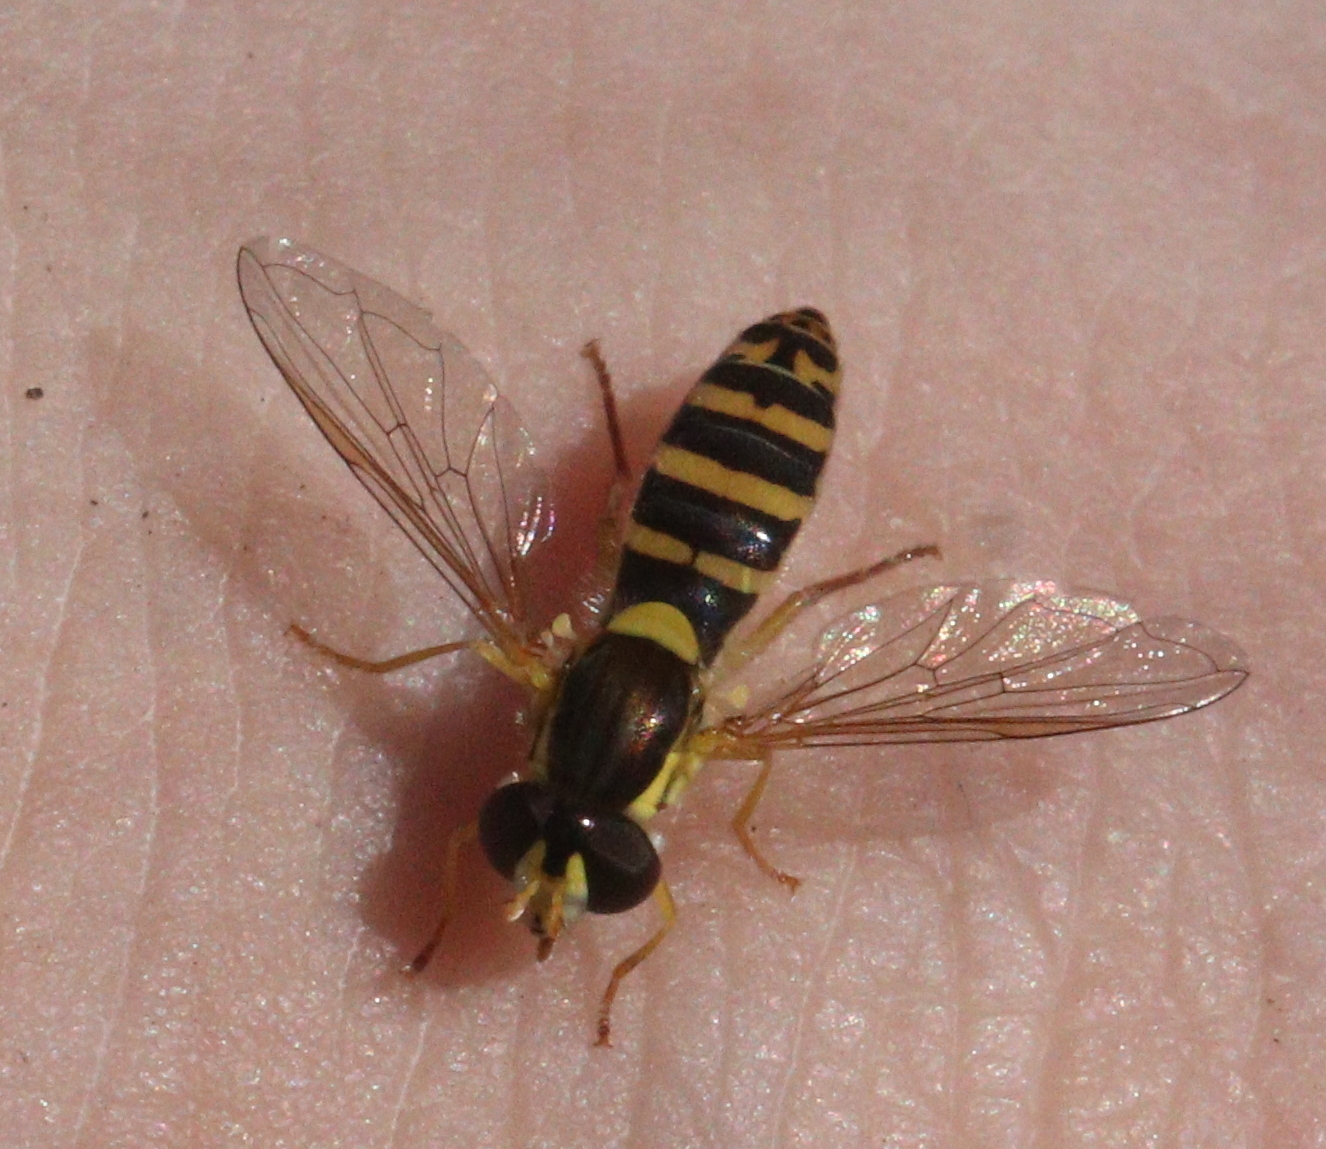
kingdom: Animalia
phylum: Arthropoda
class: Insecta
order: Diptera
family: Syrphidae
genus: Sphaerophoria
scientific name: Sphaerophoria
